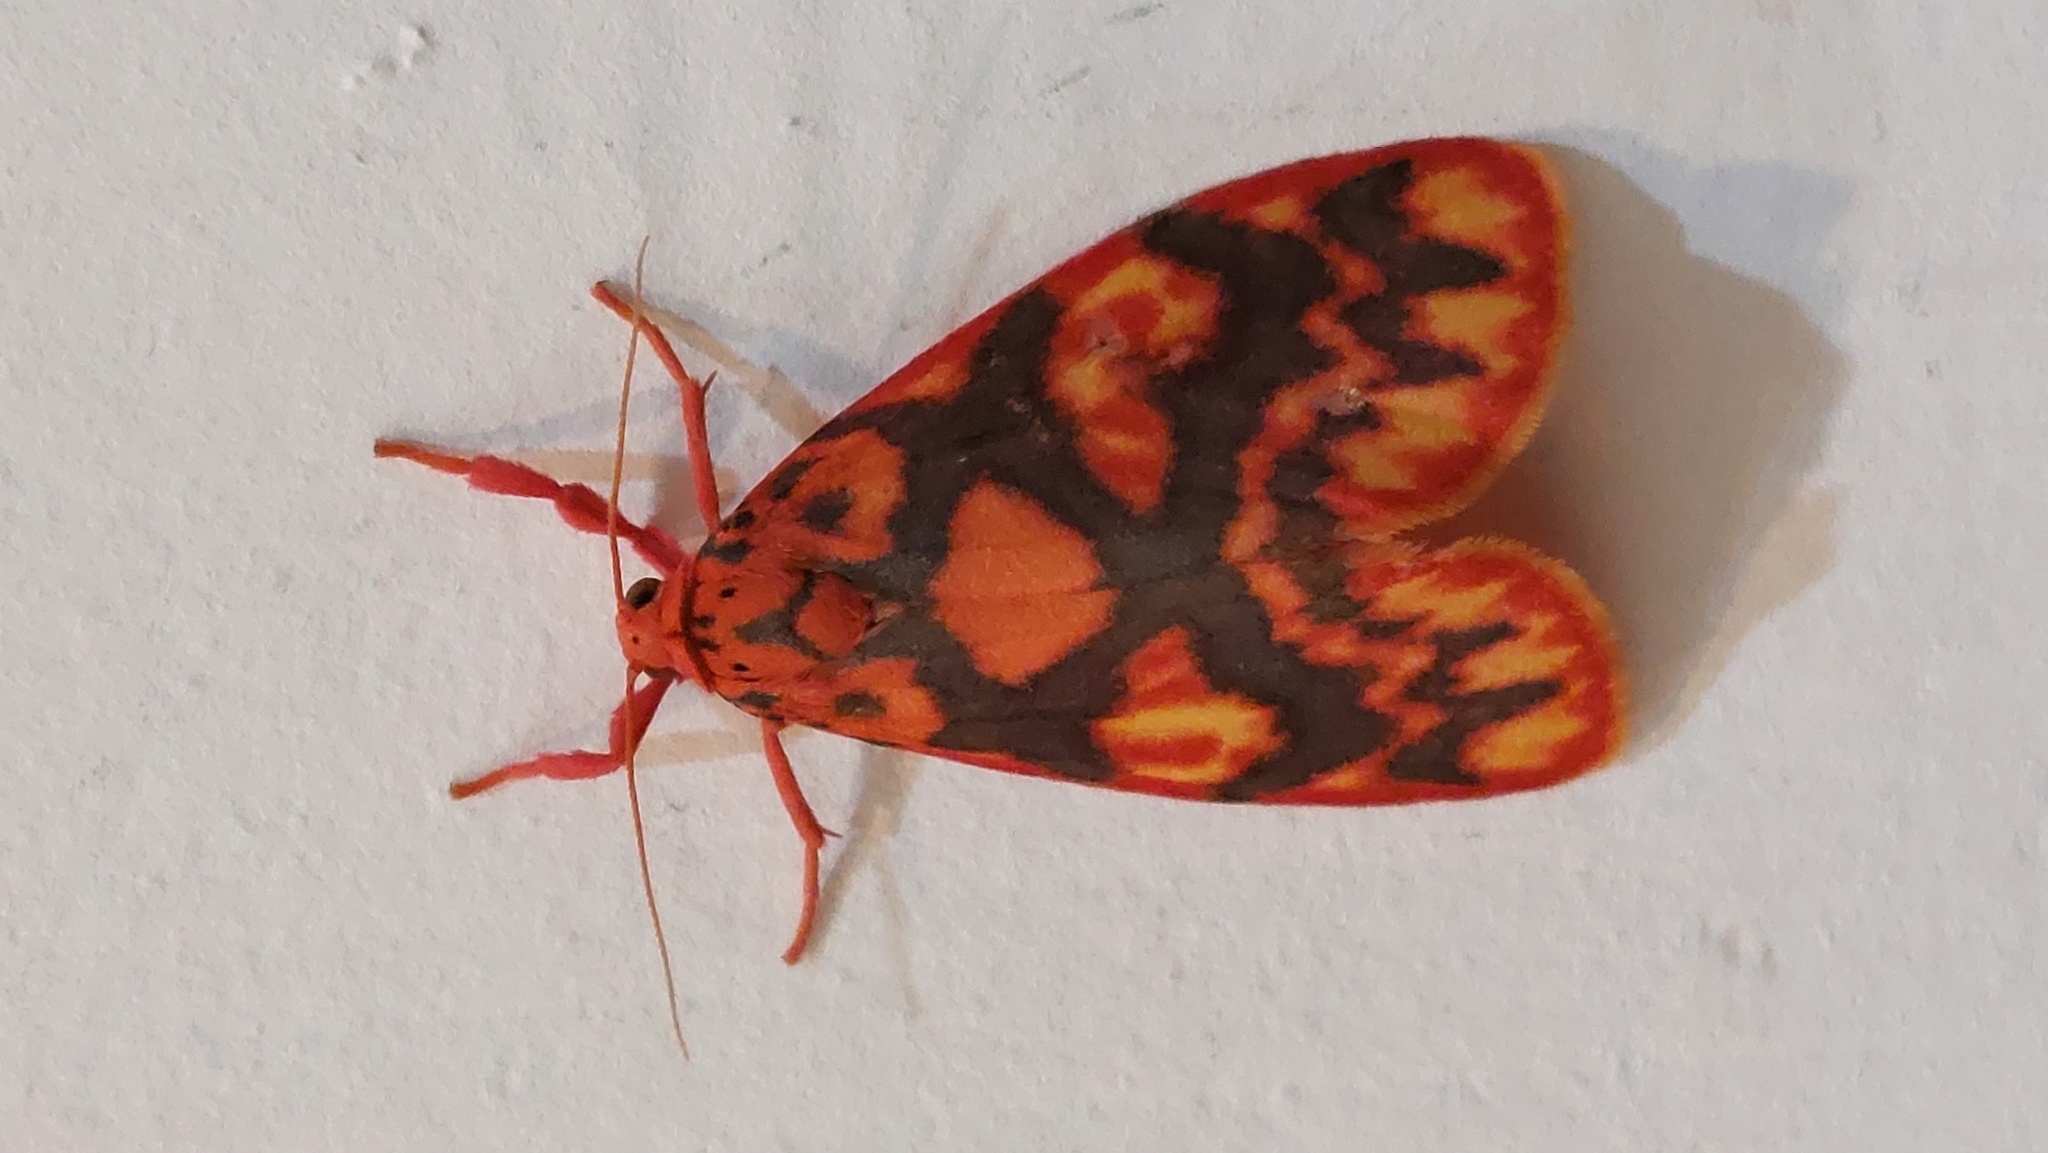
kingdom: Animalia
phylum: Arthropoda
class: Insecta
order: Lepidoptera
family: Erebidae
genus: Floridasura
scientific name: Floridasura tricolor
